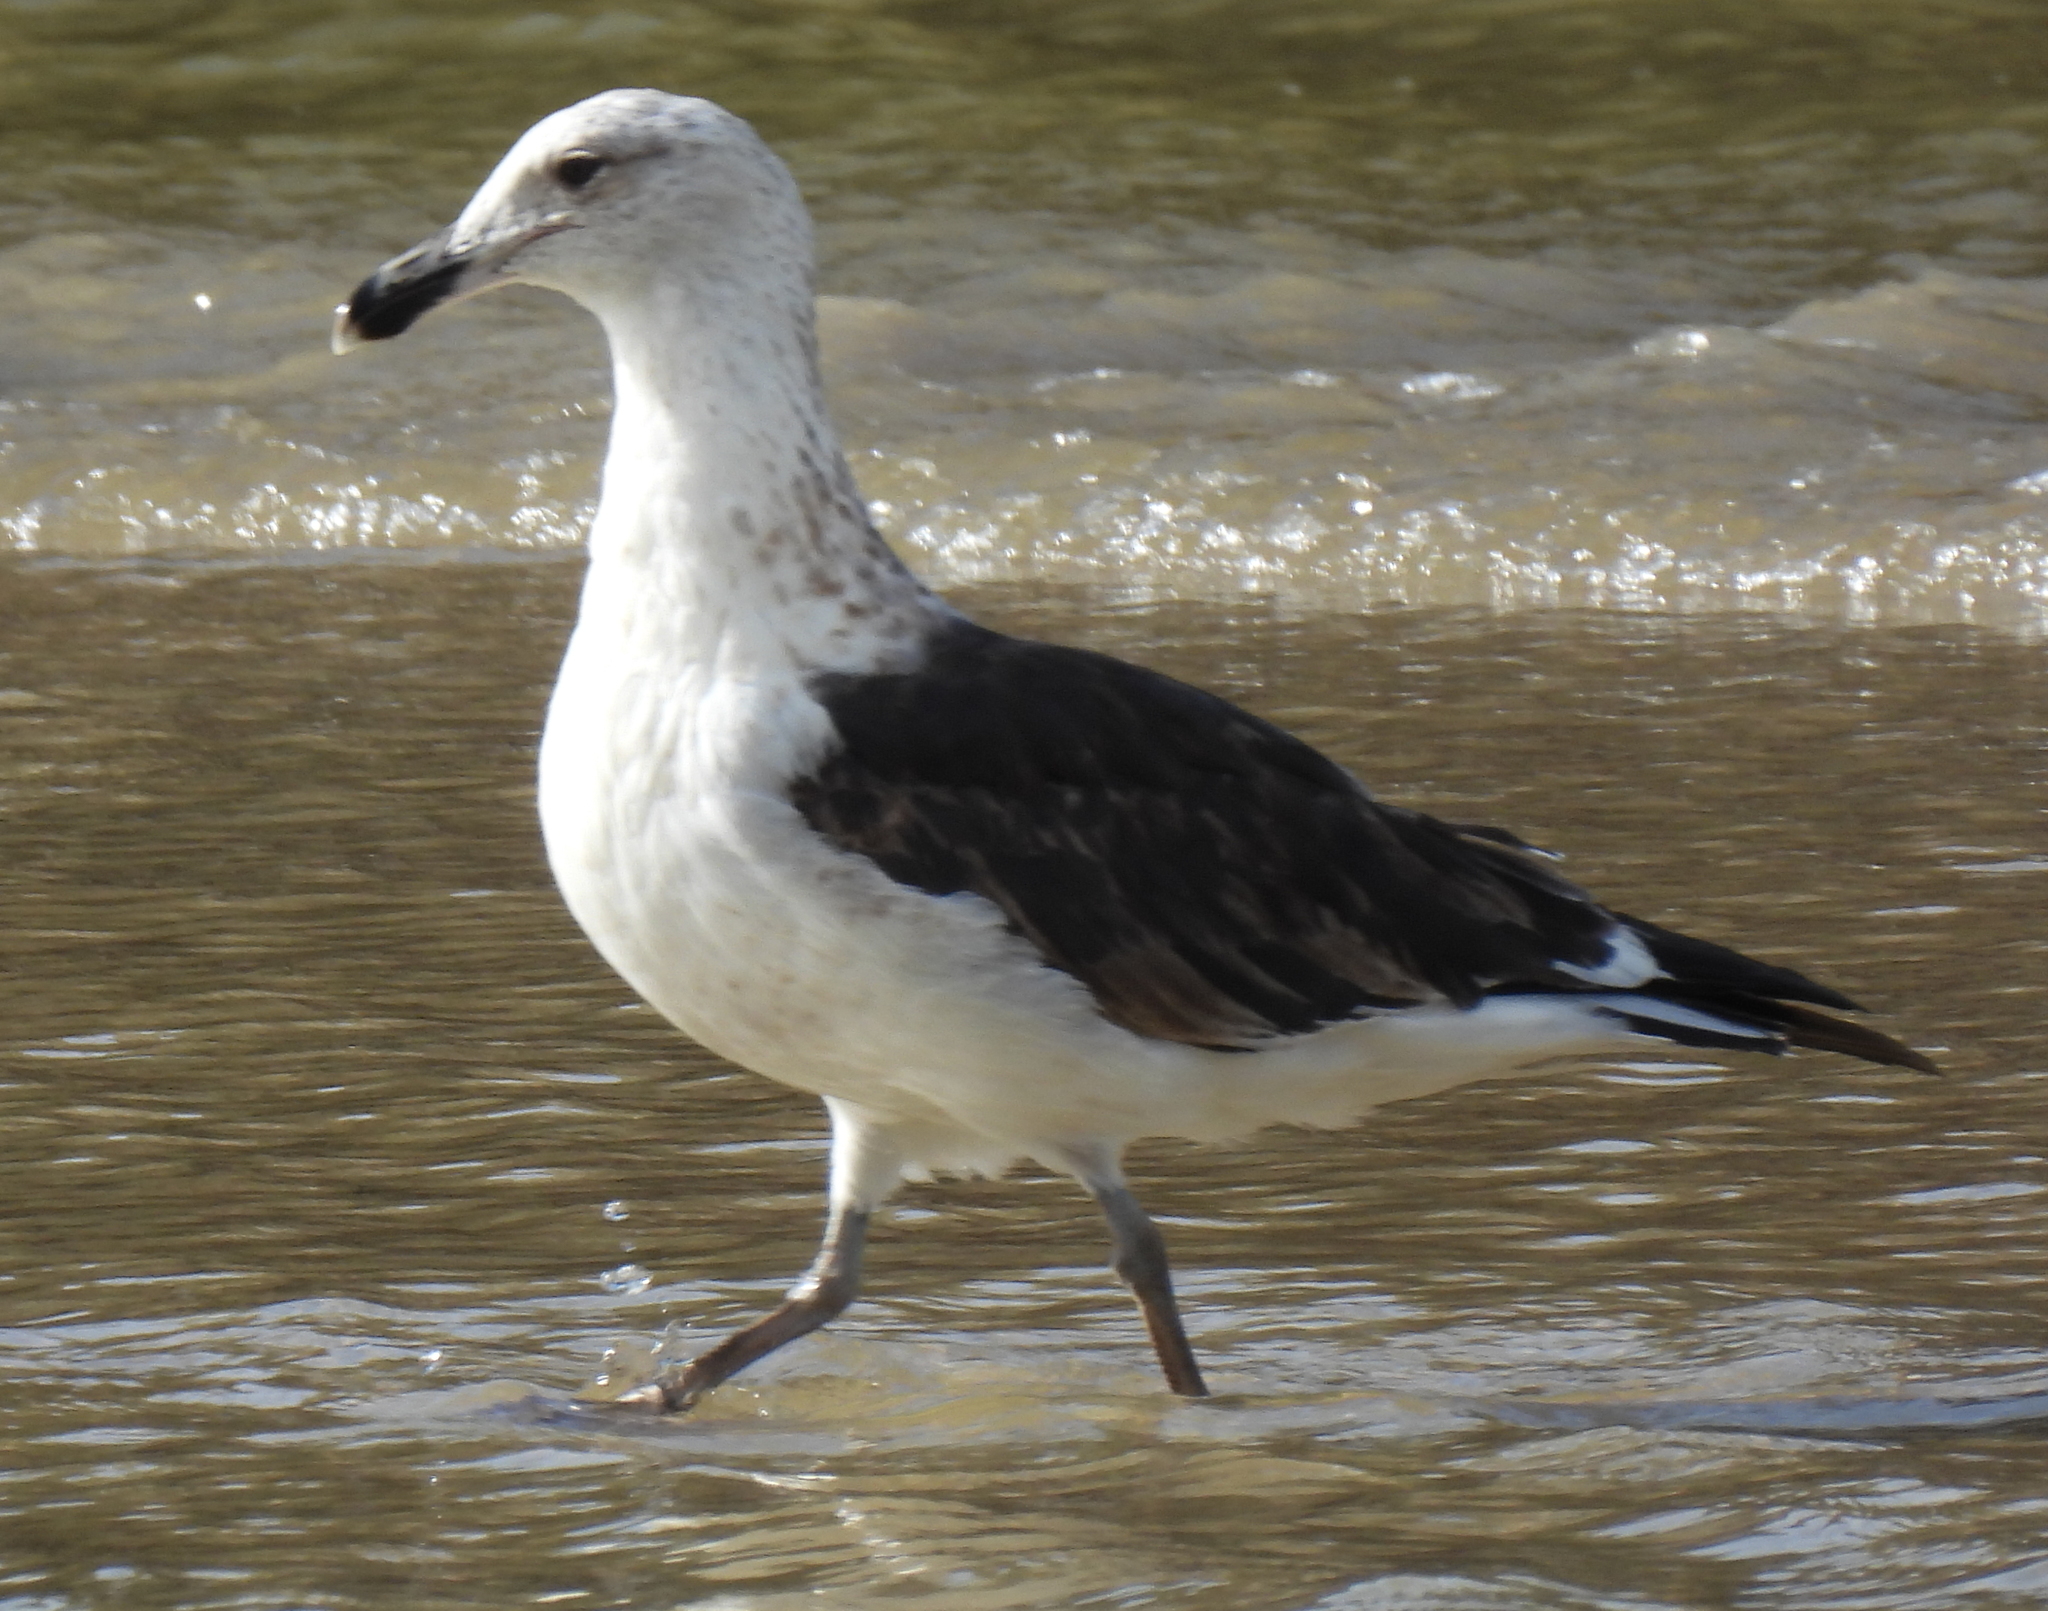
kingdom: Animalia
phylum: Chordata
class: Aves
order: Charadriiformes
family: Laridae
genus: Larus
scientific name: Larus dominicanus
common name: Kelp gull
